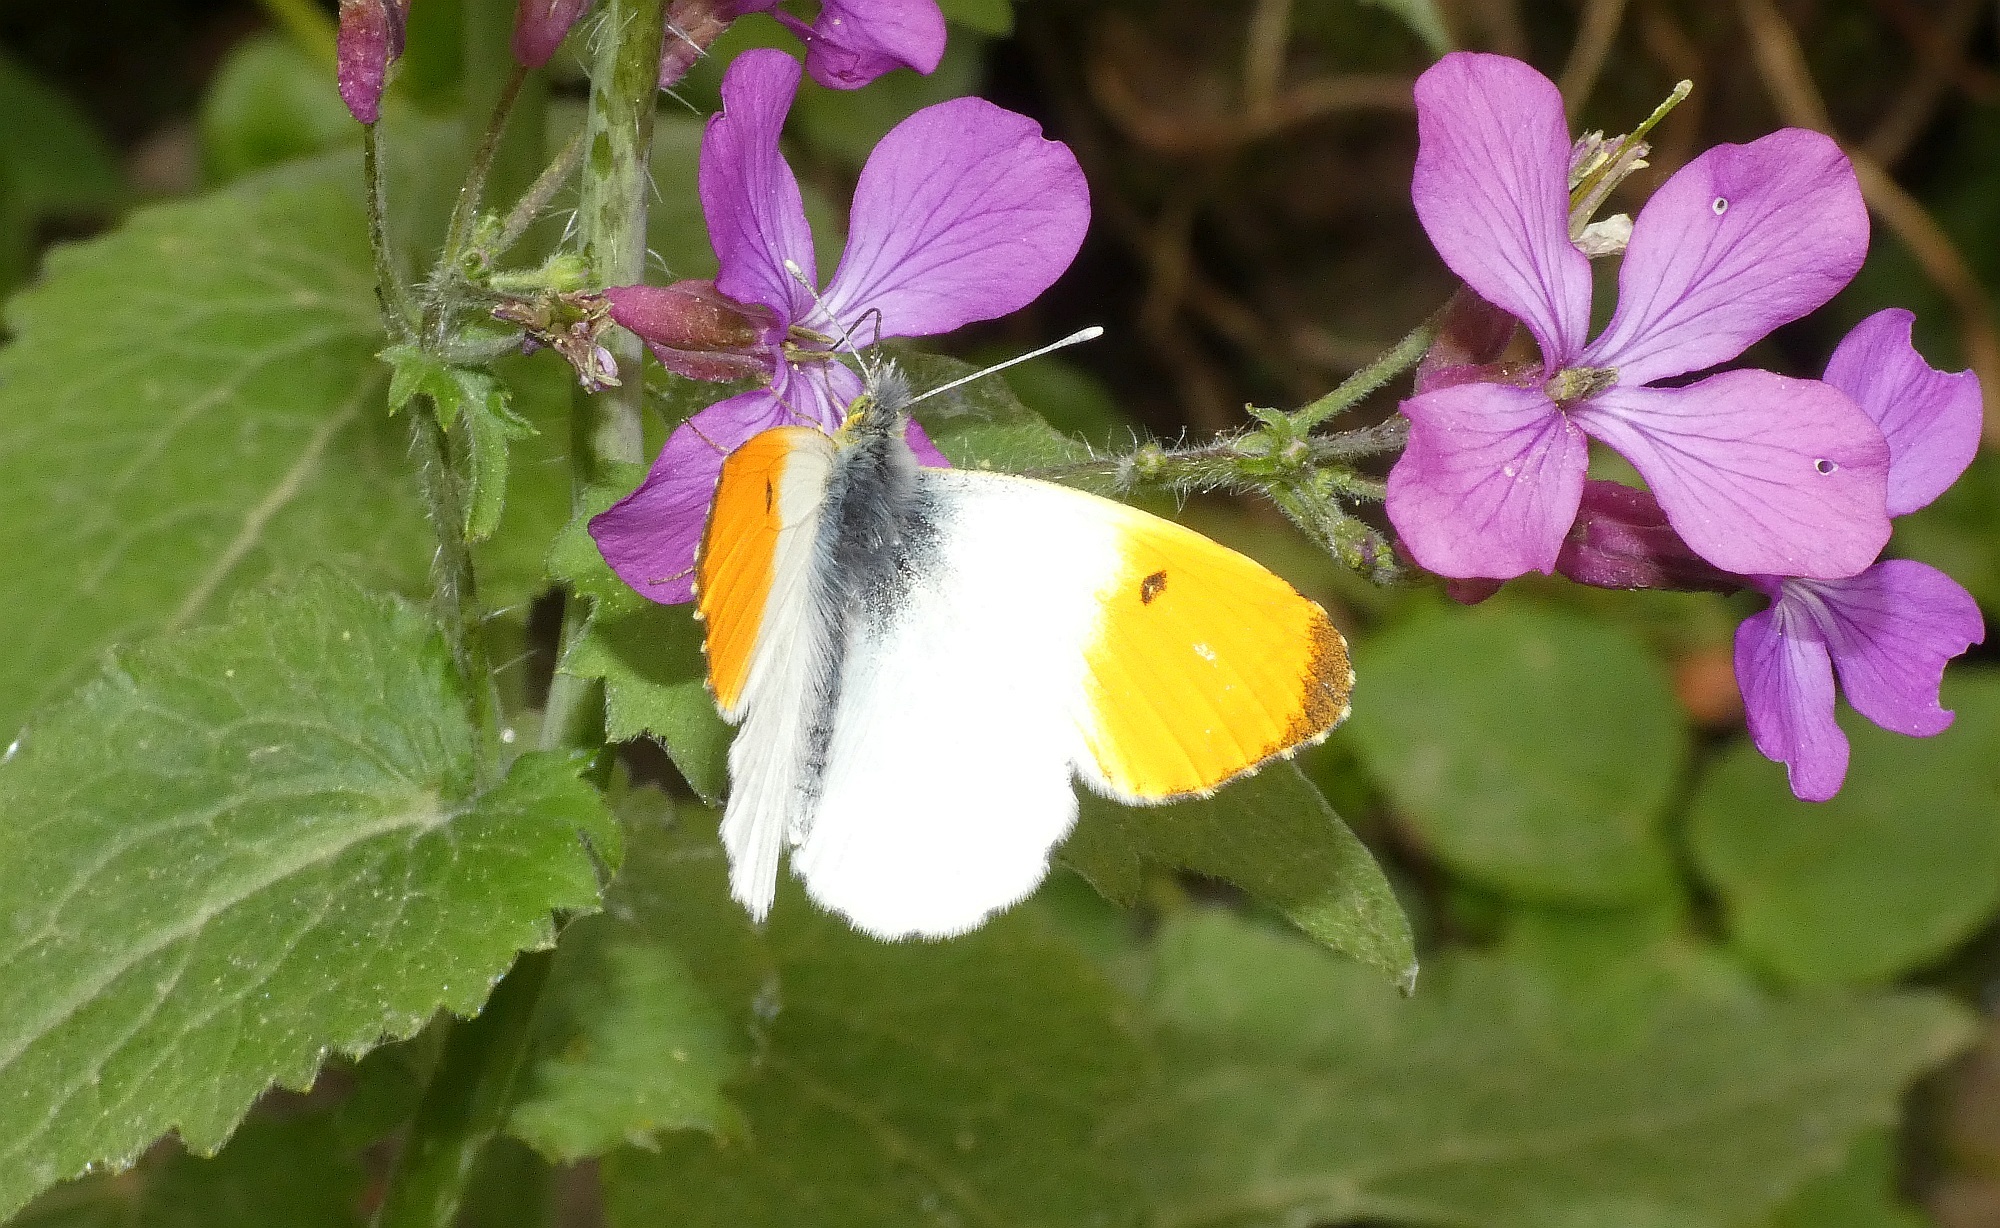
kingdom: Animalia
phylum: Arthropoda
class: Insecta
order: Lepidoptera
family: Pieridae
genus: Anthocharis
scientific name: Anthocharis cardamines
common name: Orange-tip
